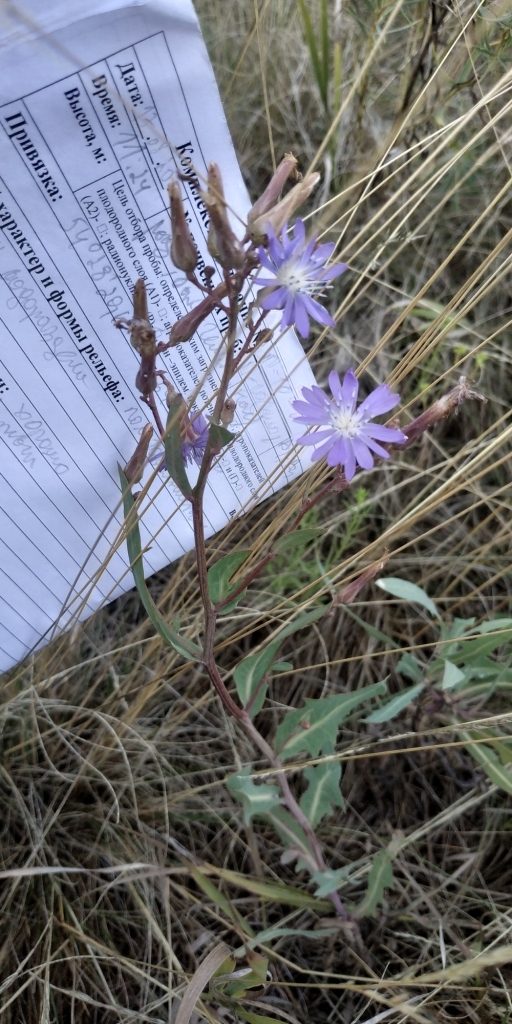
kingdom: Plantae
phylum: Tracheophyta
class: Magnoliopsida
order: Asterales
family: Asteraceae
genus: Lactuca
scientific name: Lactuca tatarica
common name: Blue lettuce
